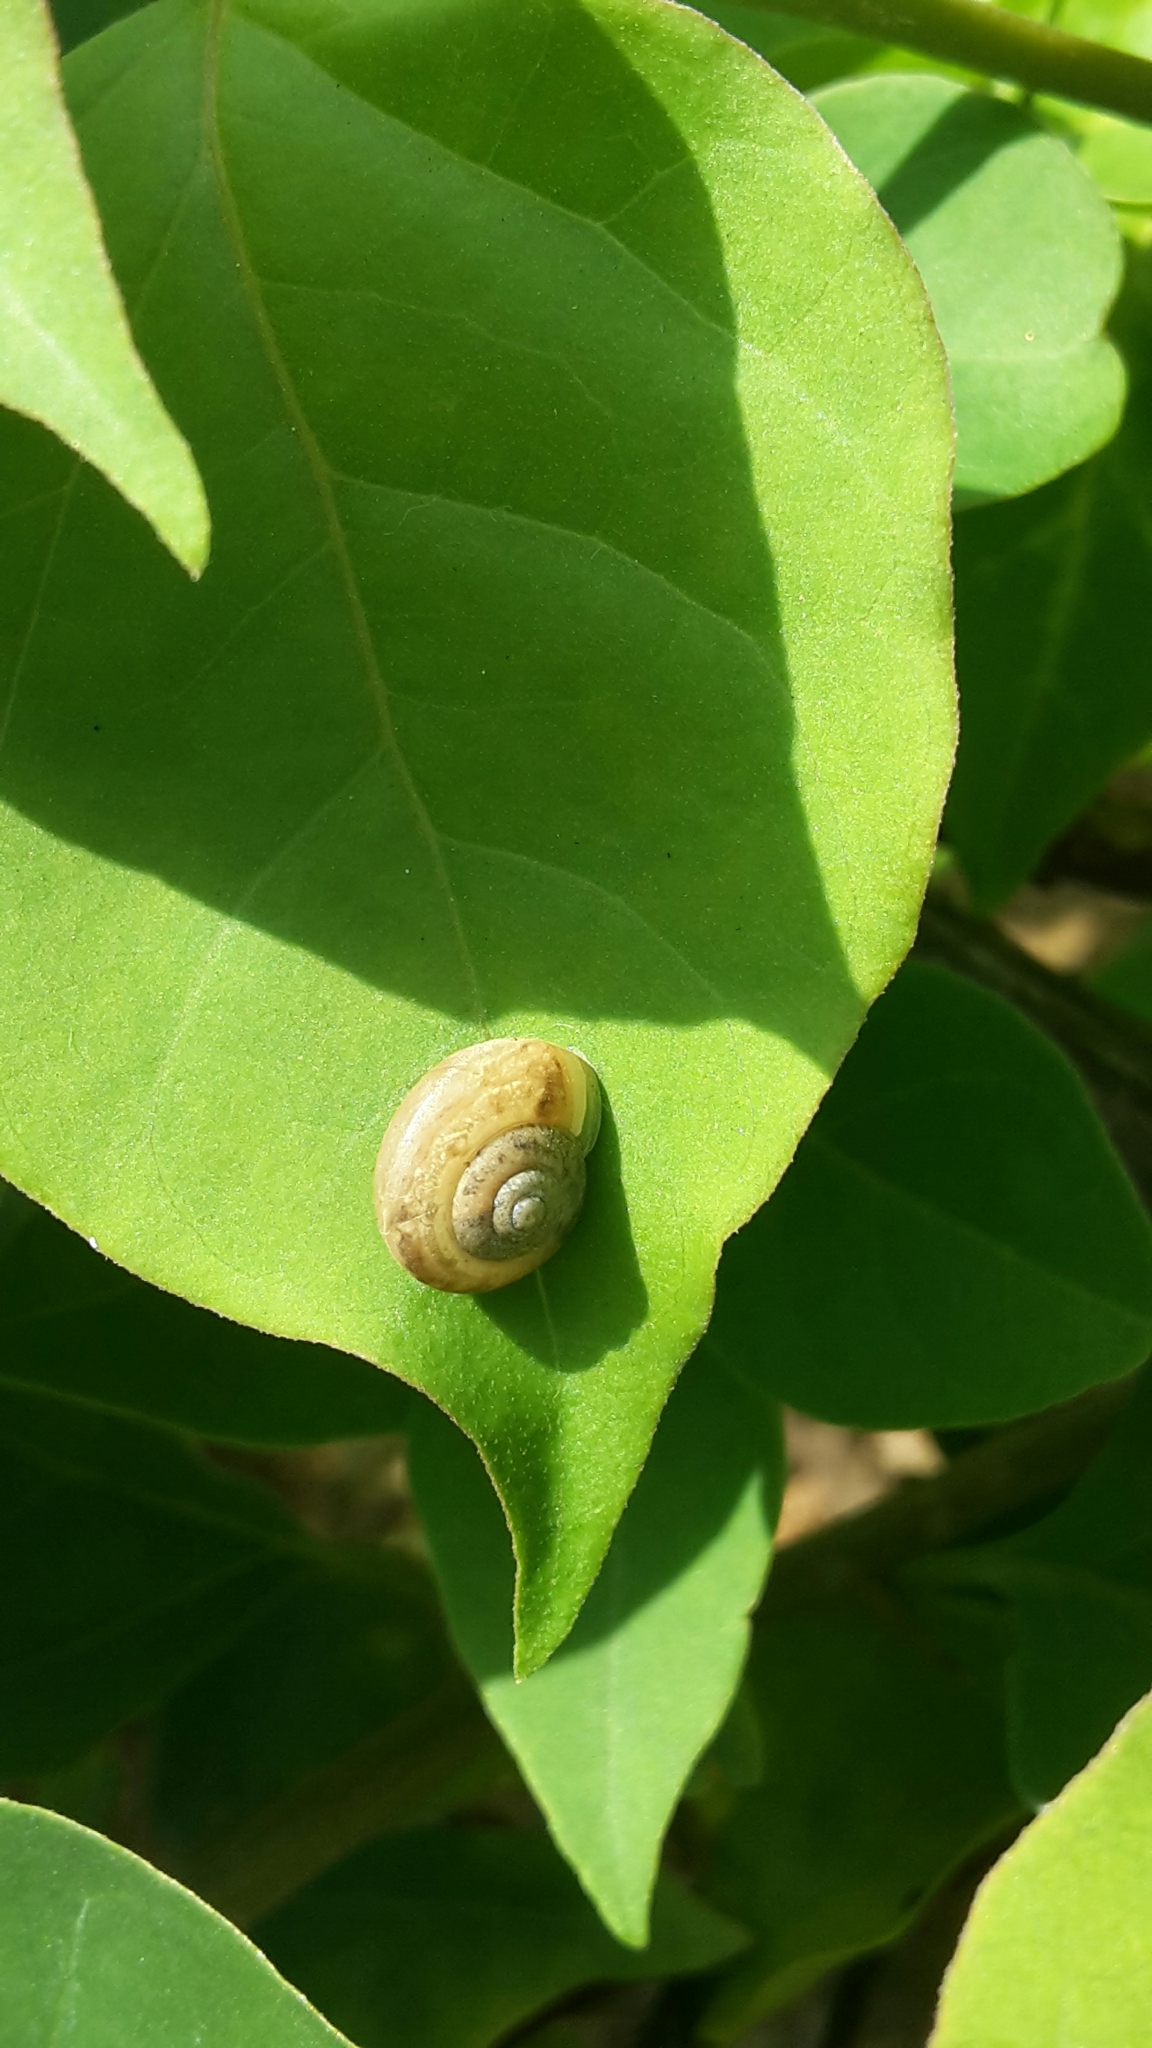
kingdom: Animalia
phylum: Mollusca
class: Gastropoda
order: Stylommatophora
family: Camaenidae
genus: Bradybaena
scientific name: Bradybaena similaris
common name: Asian trampsnail
